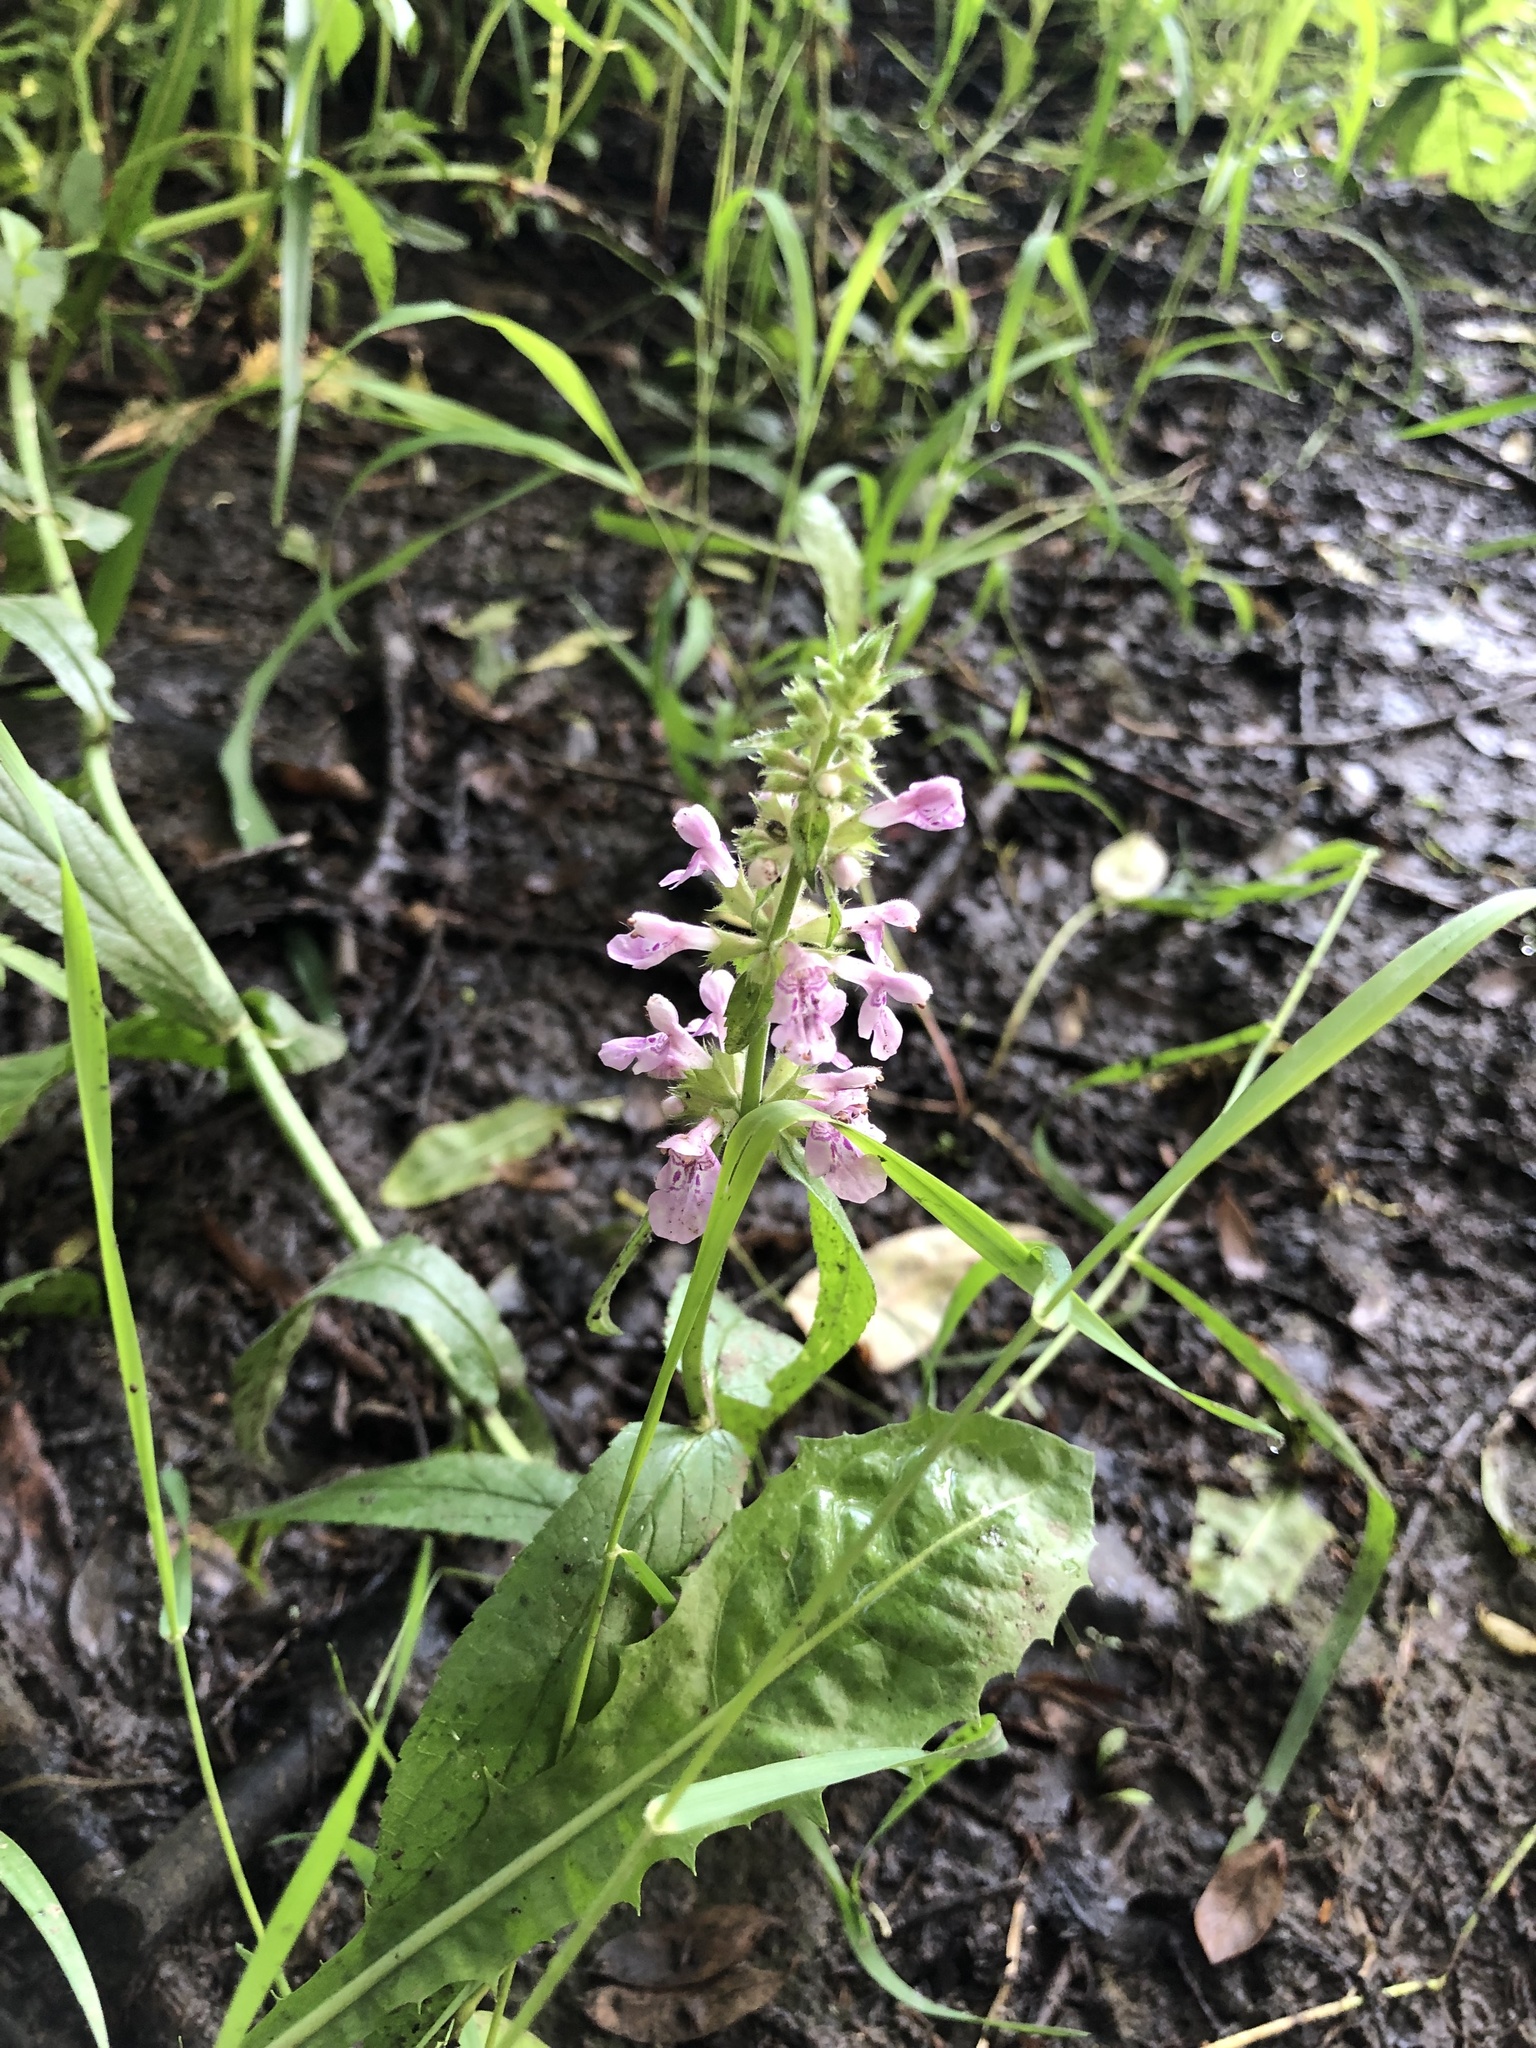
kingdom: Plantae
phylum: Tracheophyta
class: Magnoliopsida
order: Lamiales
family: Lamiaceae
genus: Stachys
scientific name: Stachys palustris
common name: Marsh woundwort
